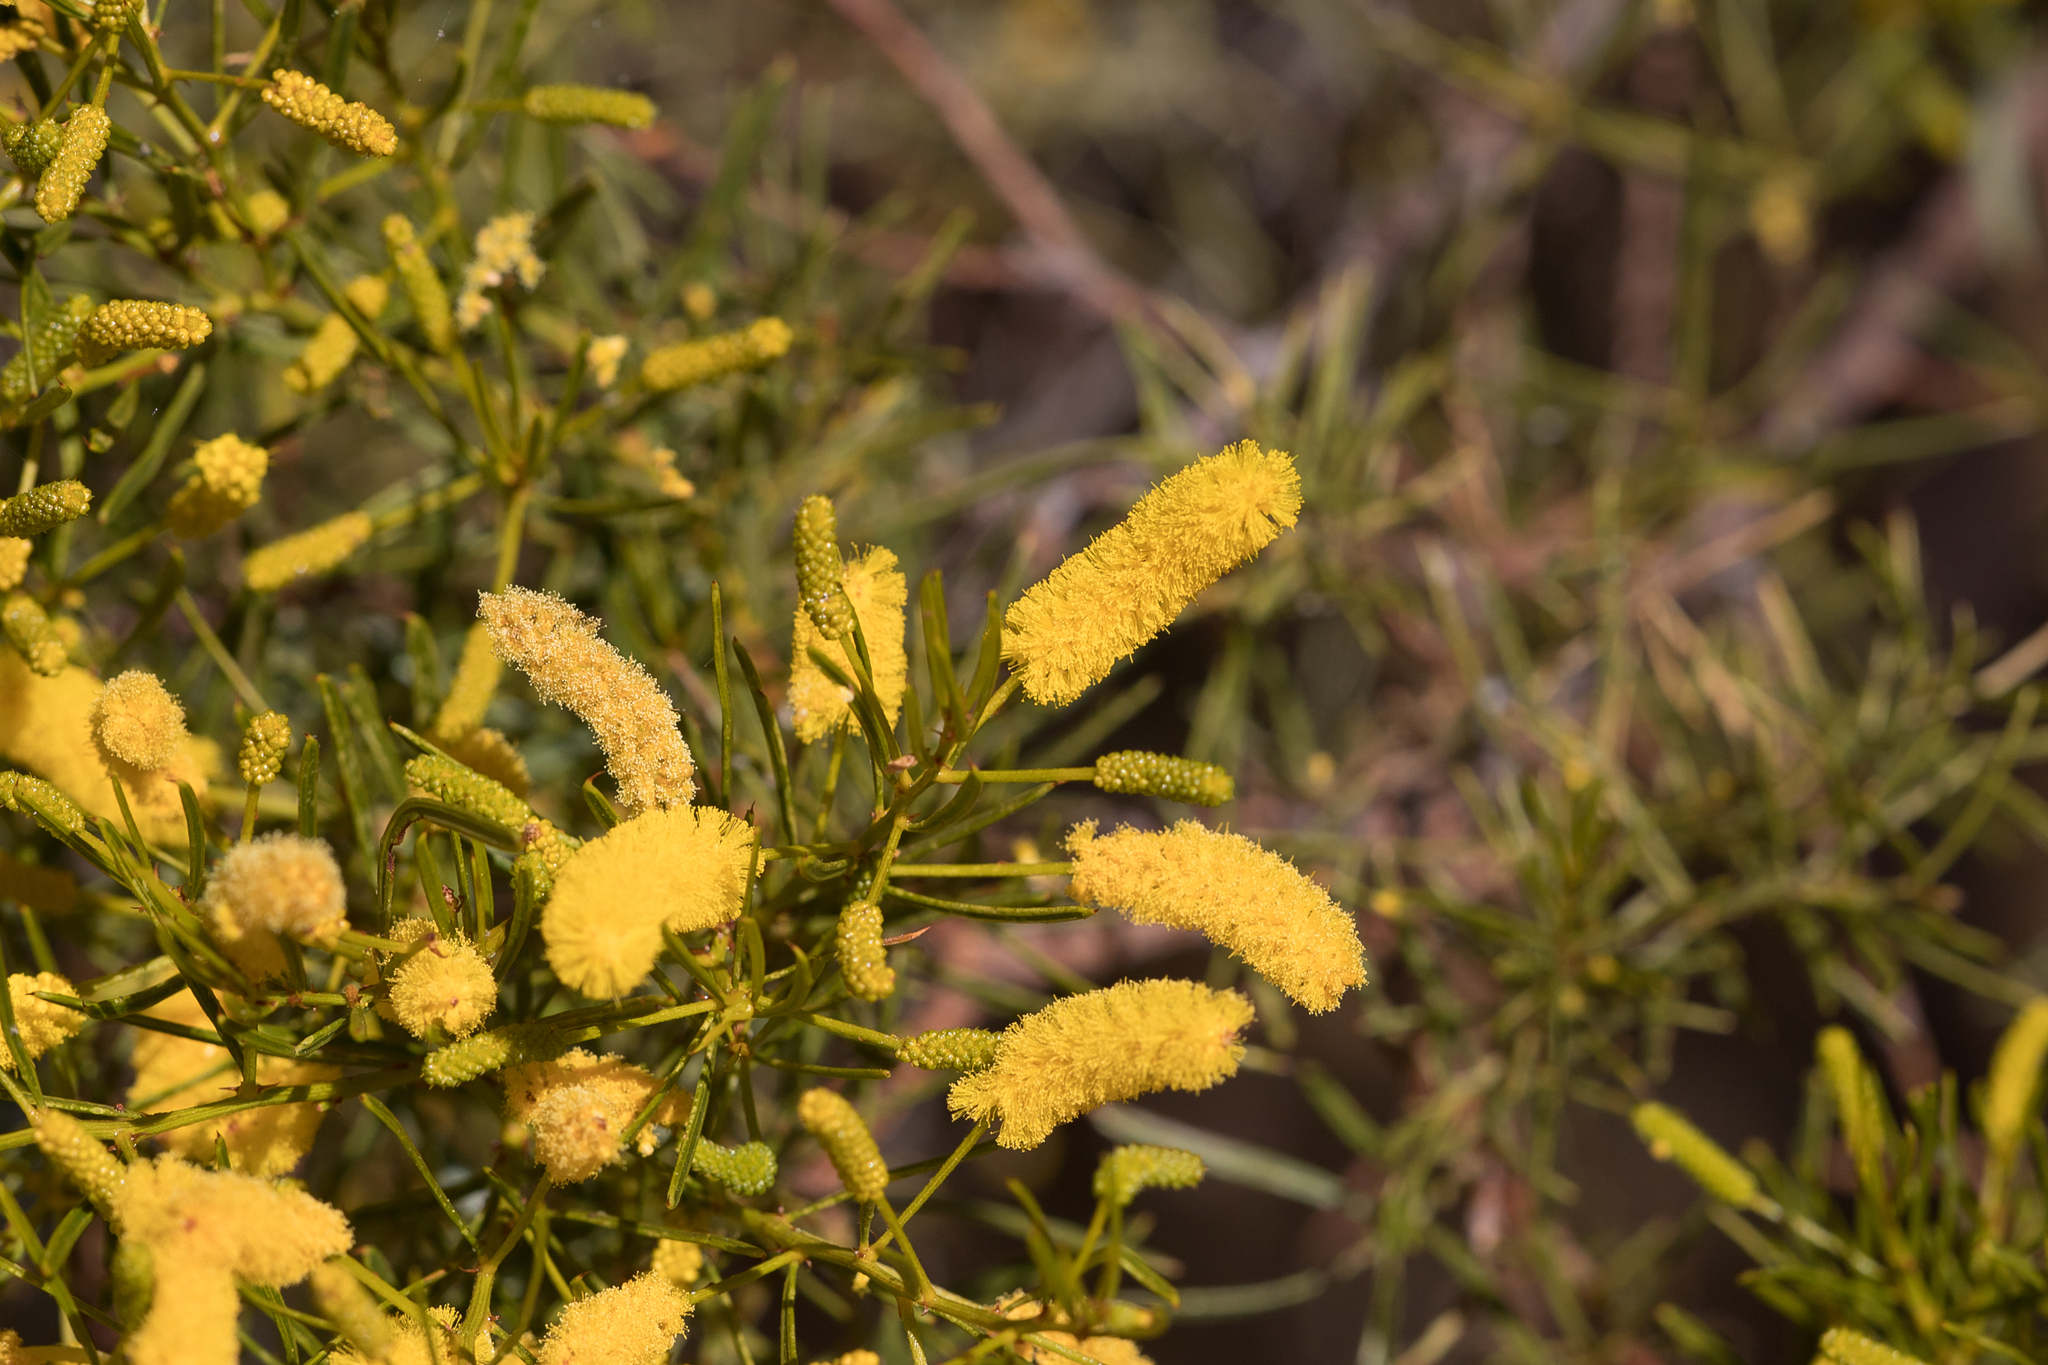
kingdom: Plantae
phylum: Tracheophyta
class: Magnoliopsida
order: Fabales
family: Fabaceae
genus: Acacia
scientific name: Acacia chisholmii
